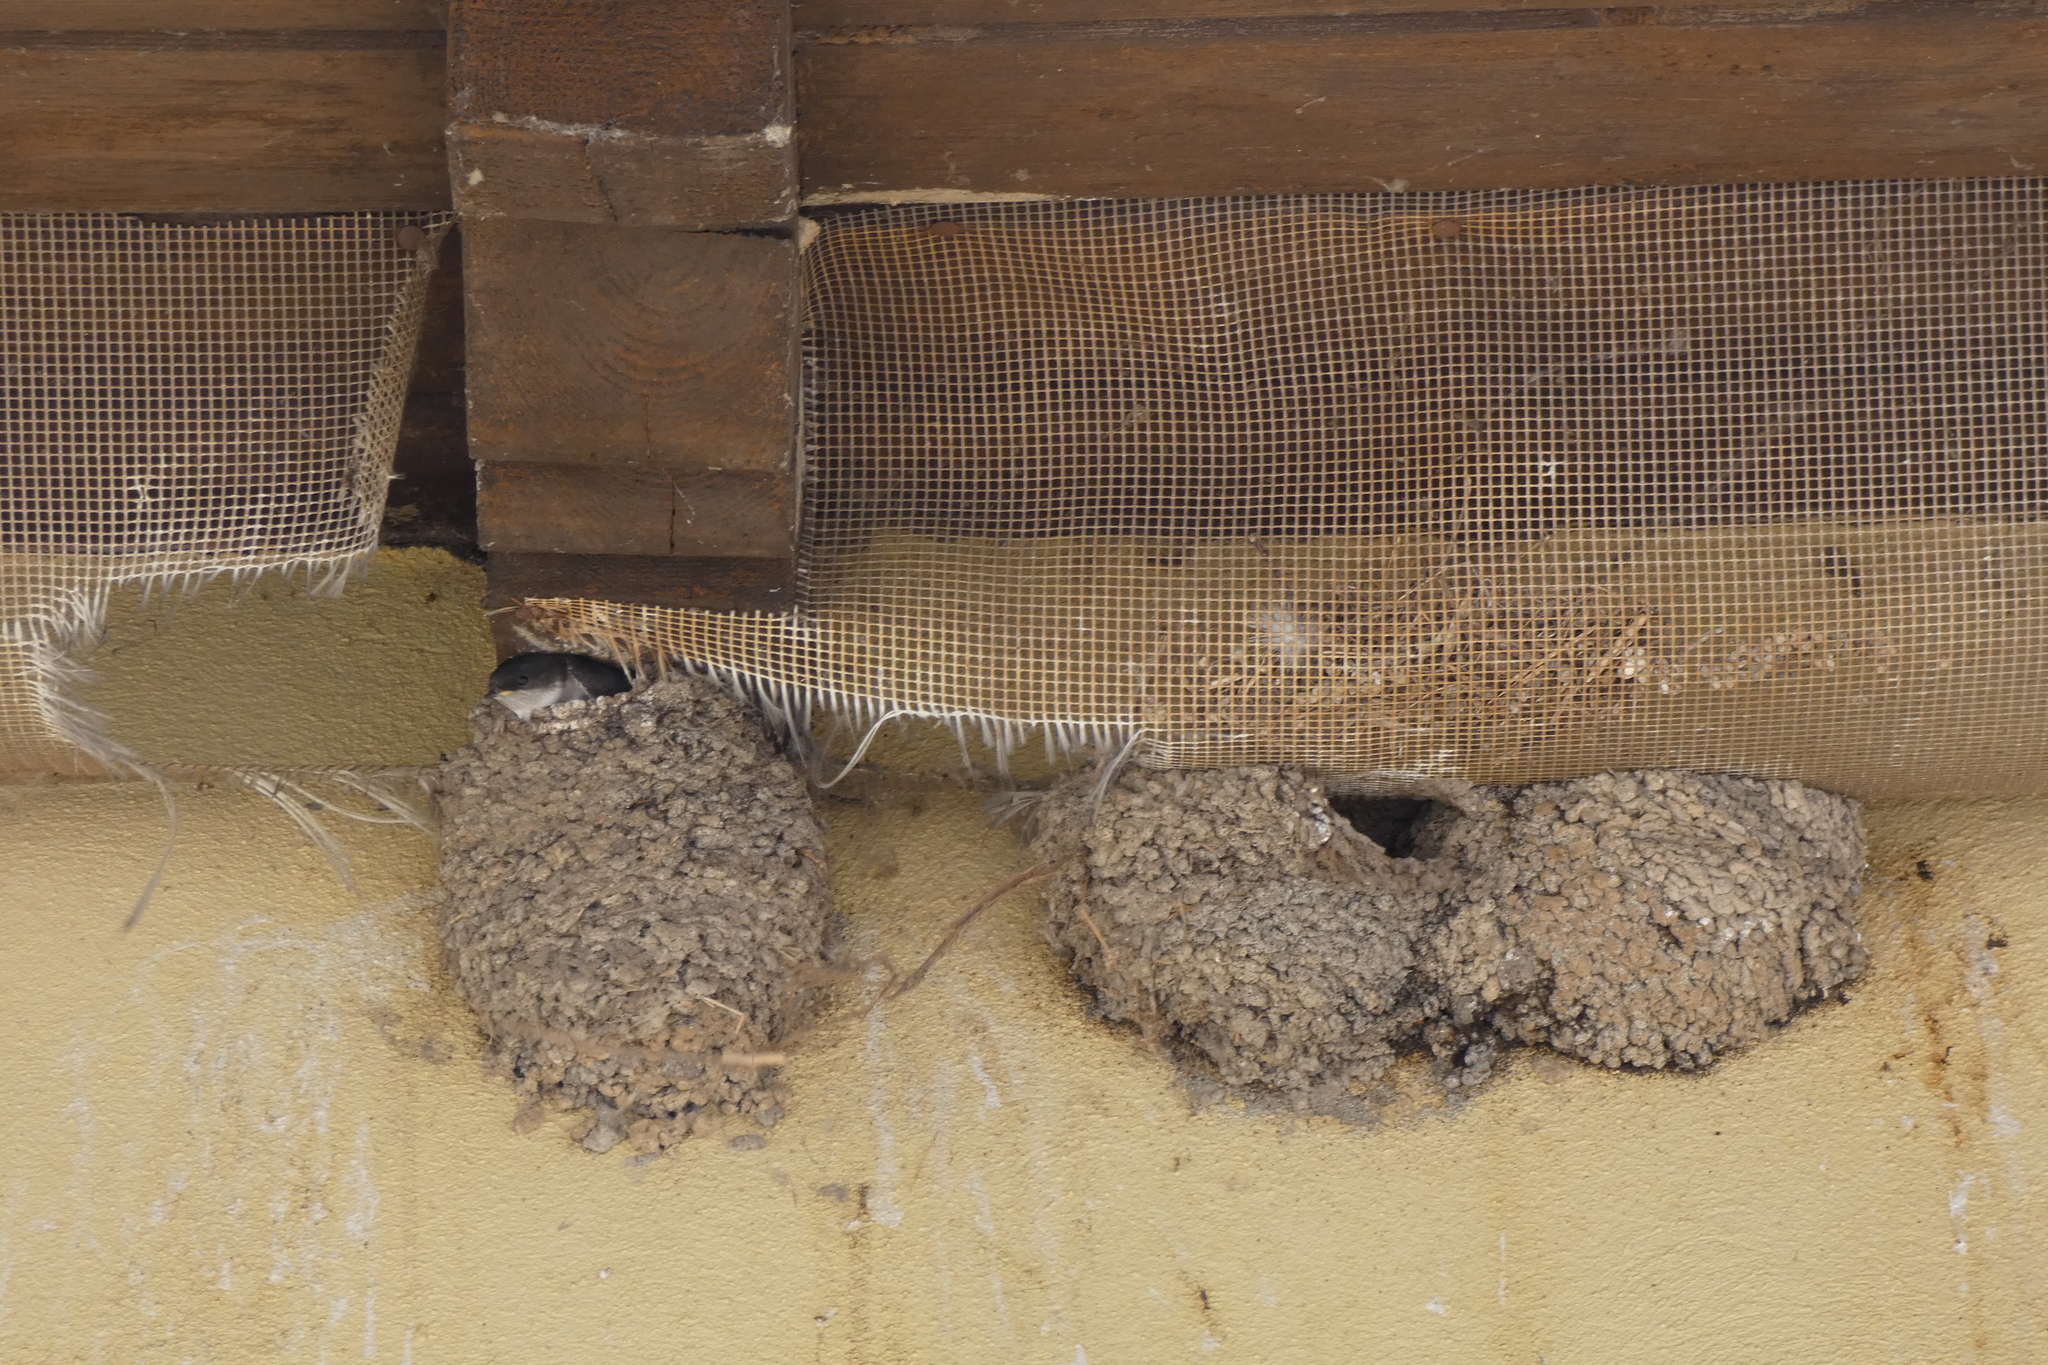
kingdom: Animalia
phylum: Chordata
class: Aves
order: Passeriformes
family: Hirundinidae
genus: Delichon
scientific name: Delichon urbicum
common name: Common house martin
